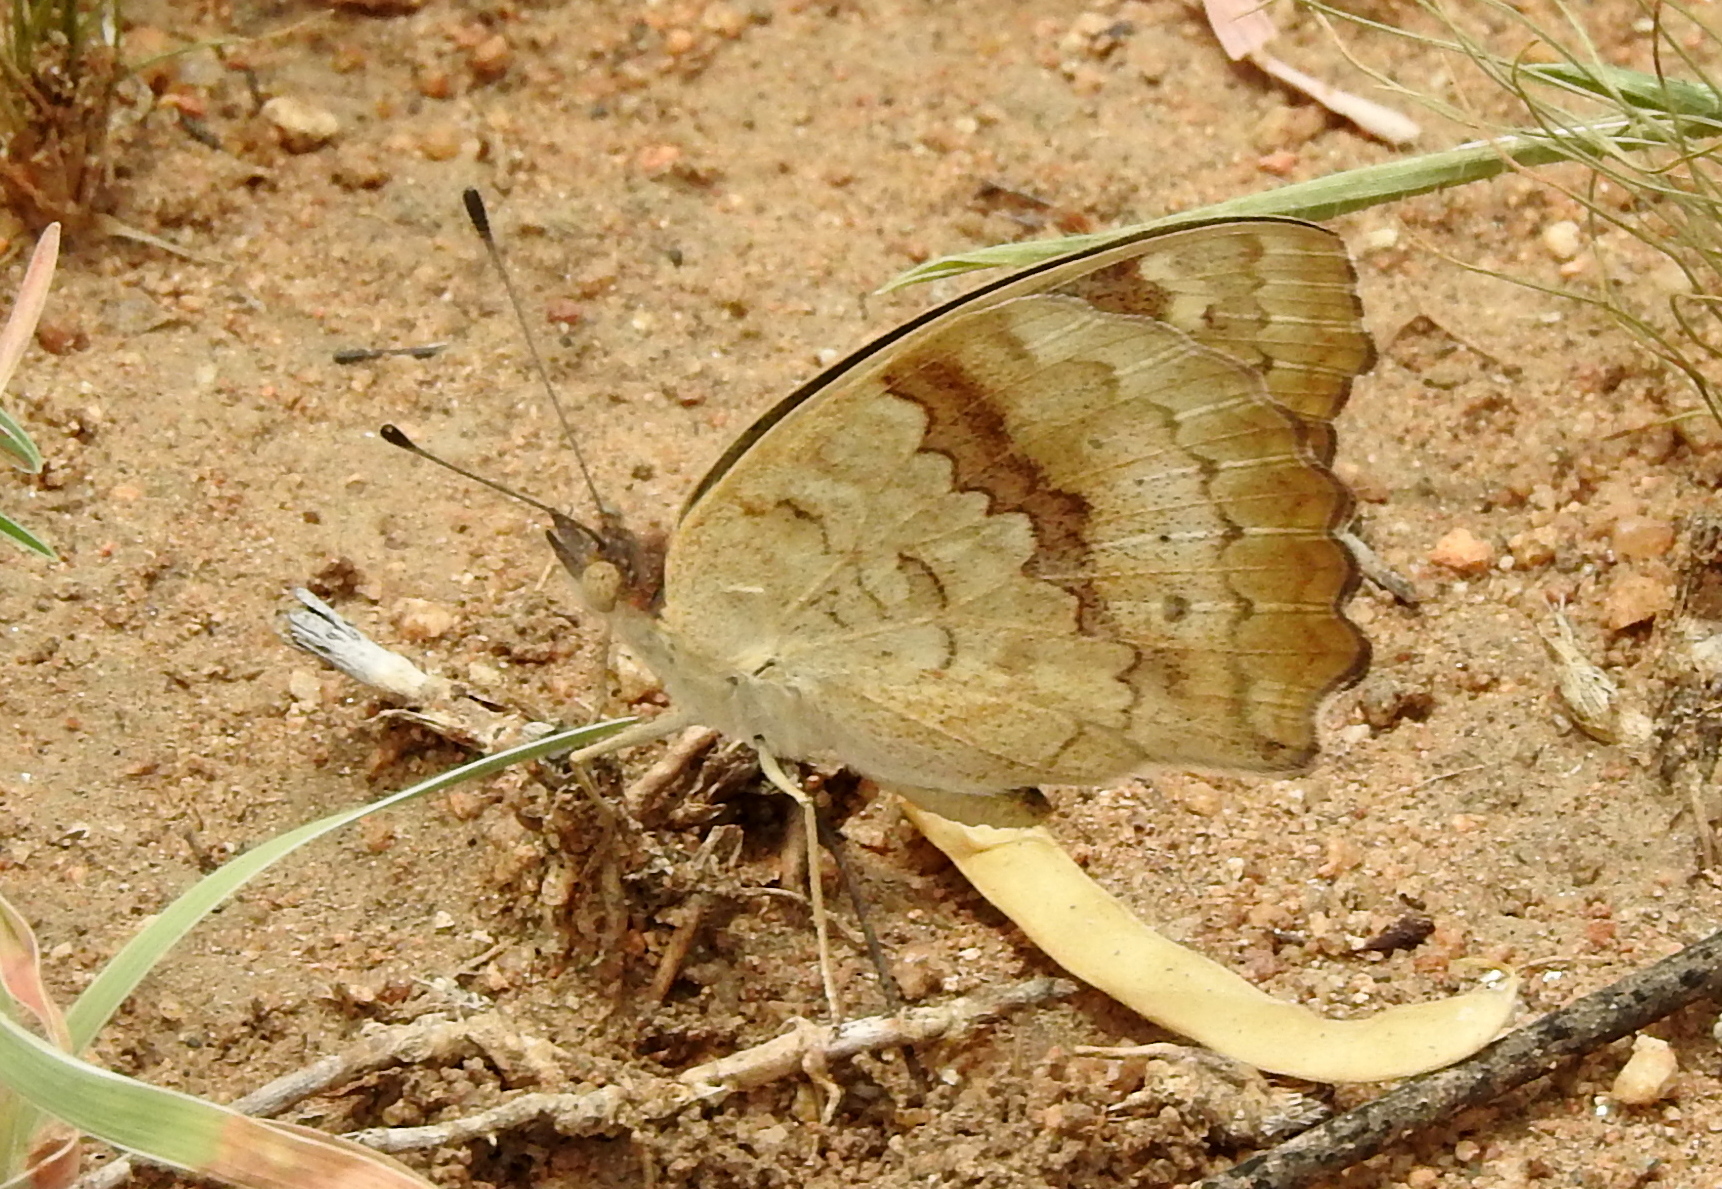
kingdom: Animalia
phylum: Arthropoda
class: Insecta
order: Lepidoptera
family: Nymphalidae
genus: Junonia
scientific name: Junonia hierta
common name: Yellow pansy
